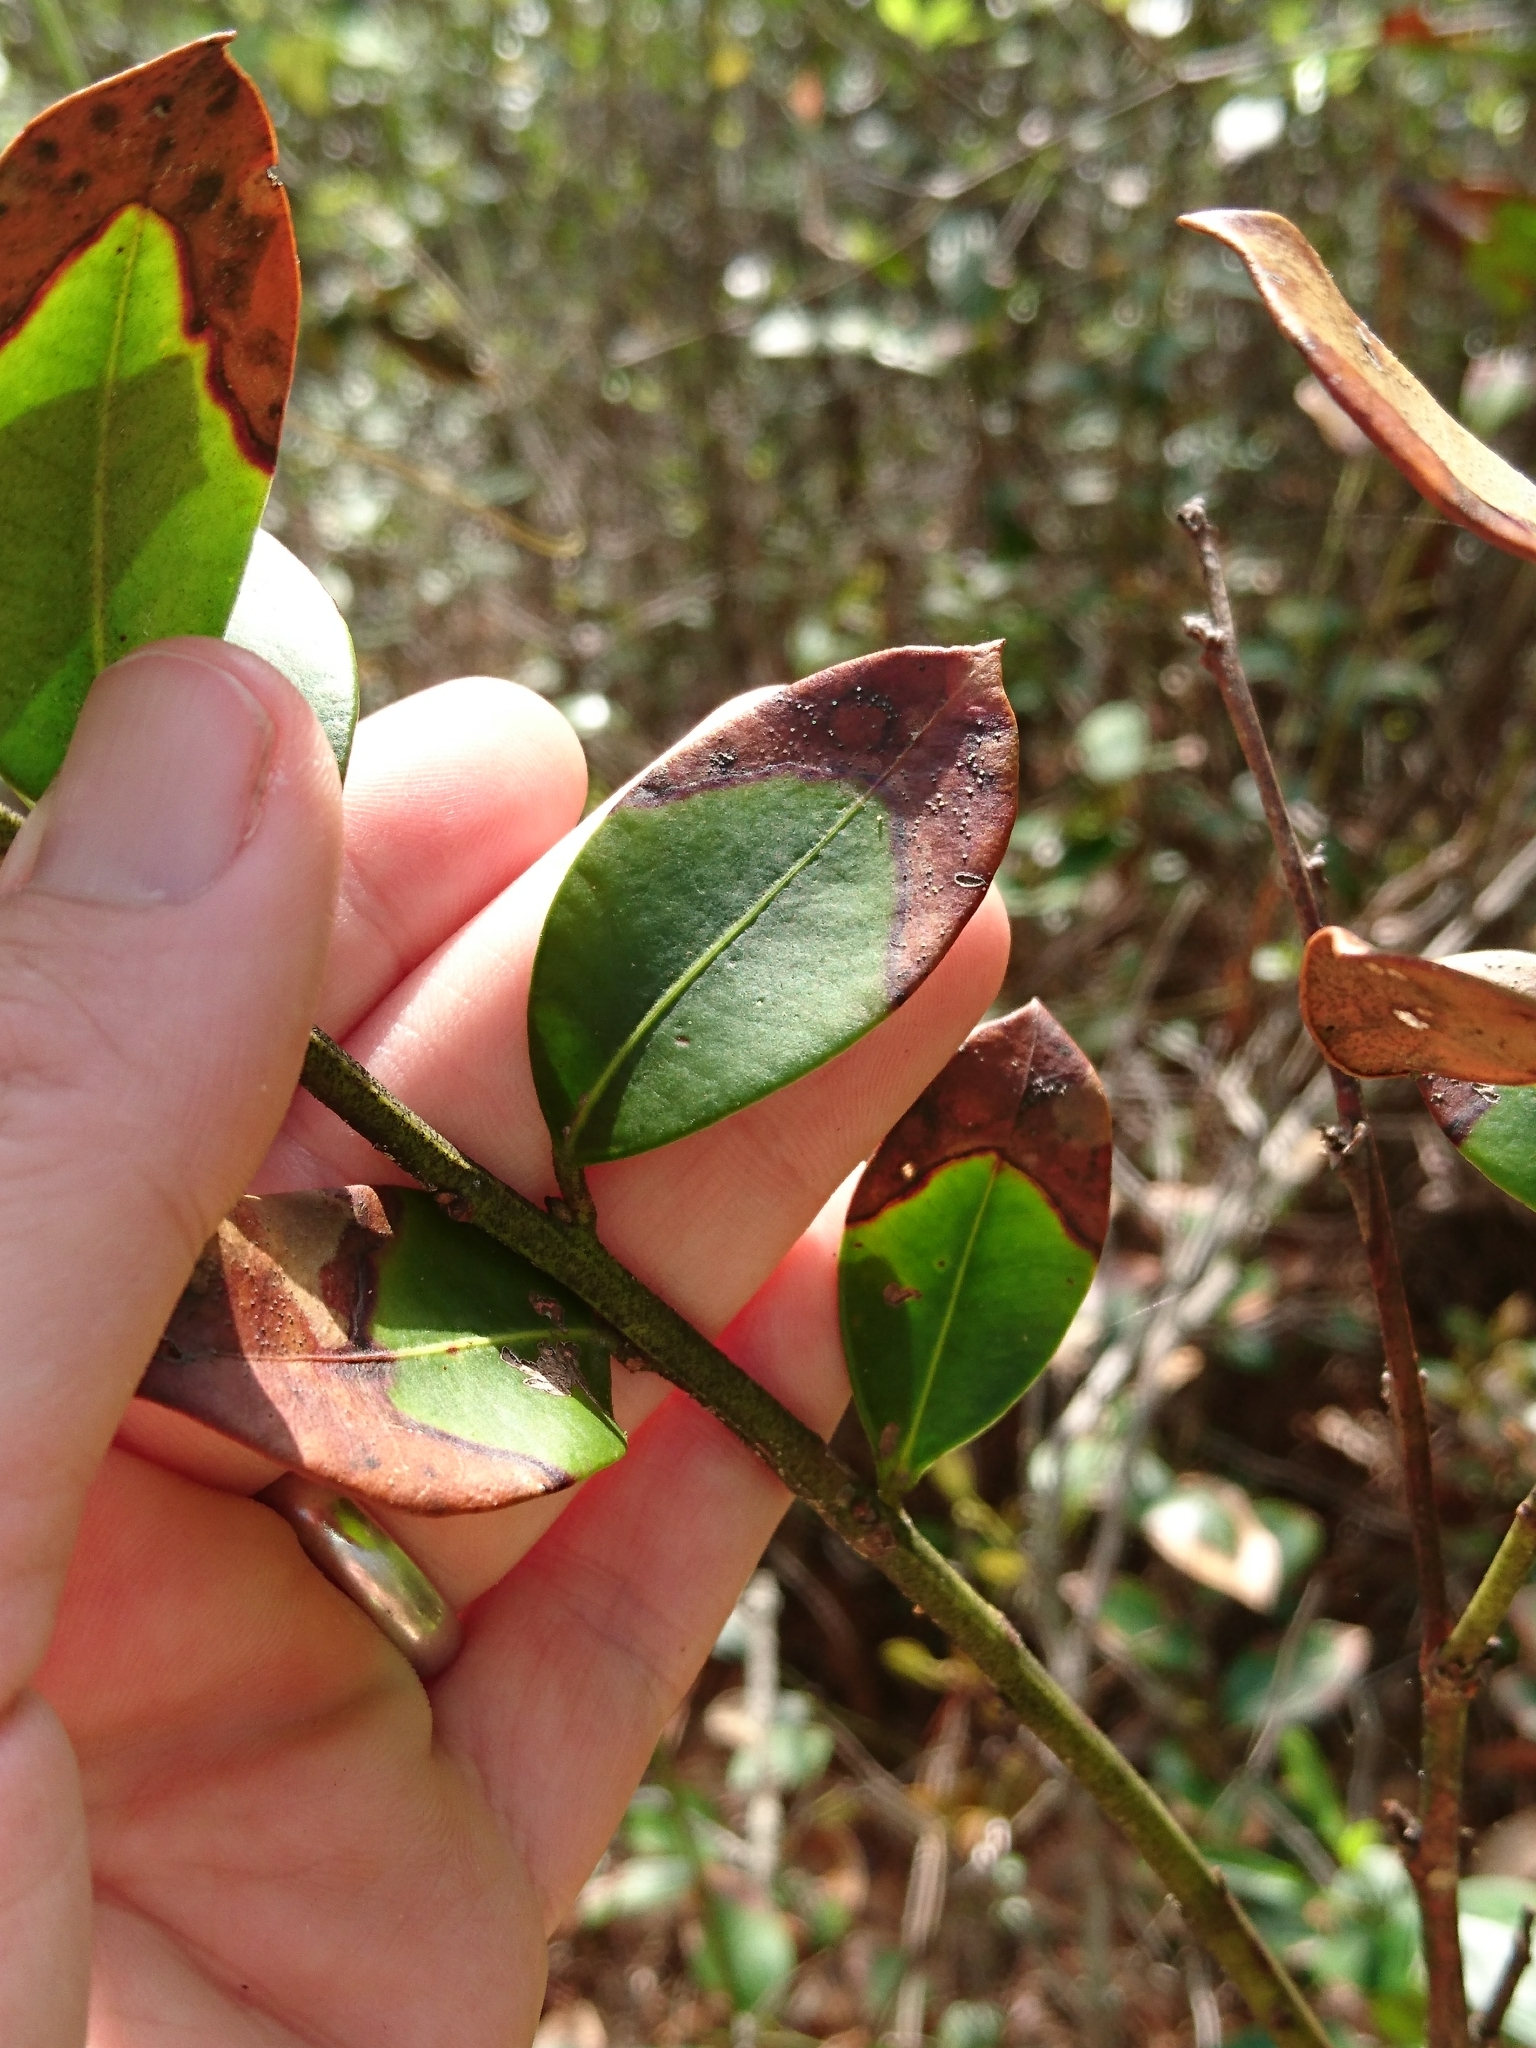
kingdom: Plantae
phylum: Tracheophyta
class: Magnoliopsida
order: Ericales
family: Ericaceae
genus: Lyonia
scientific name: Lyonia lucida
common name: Fetterbush
